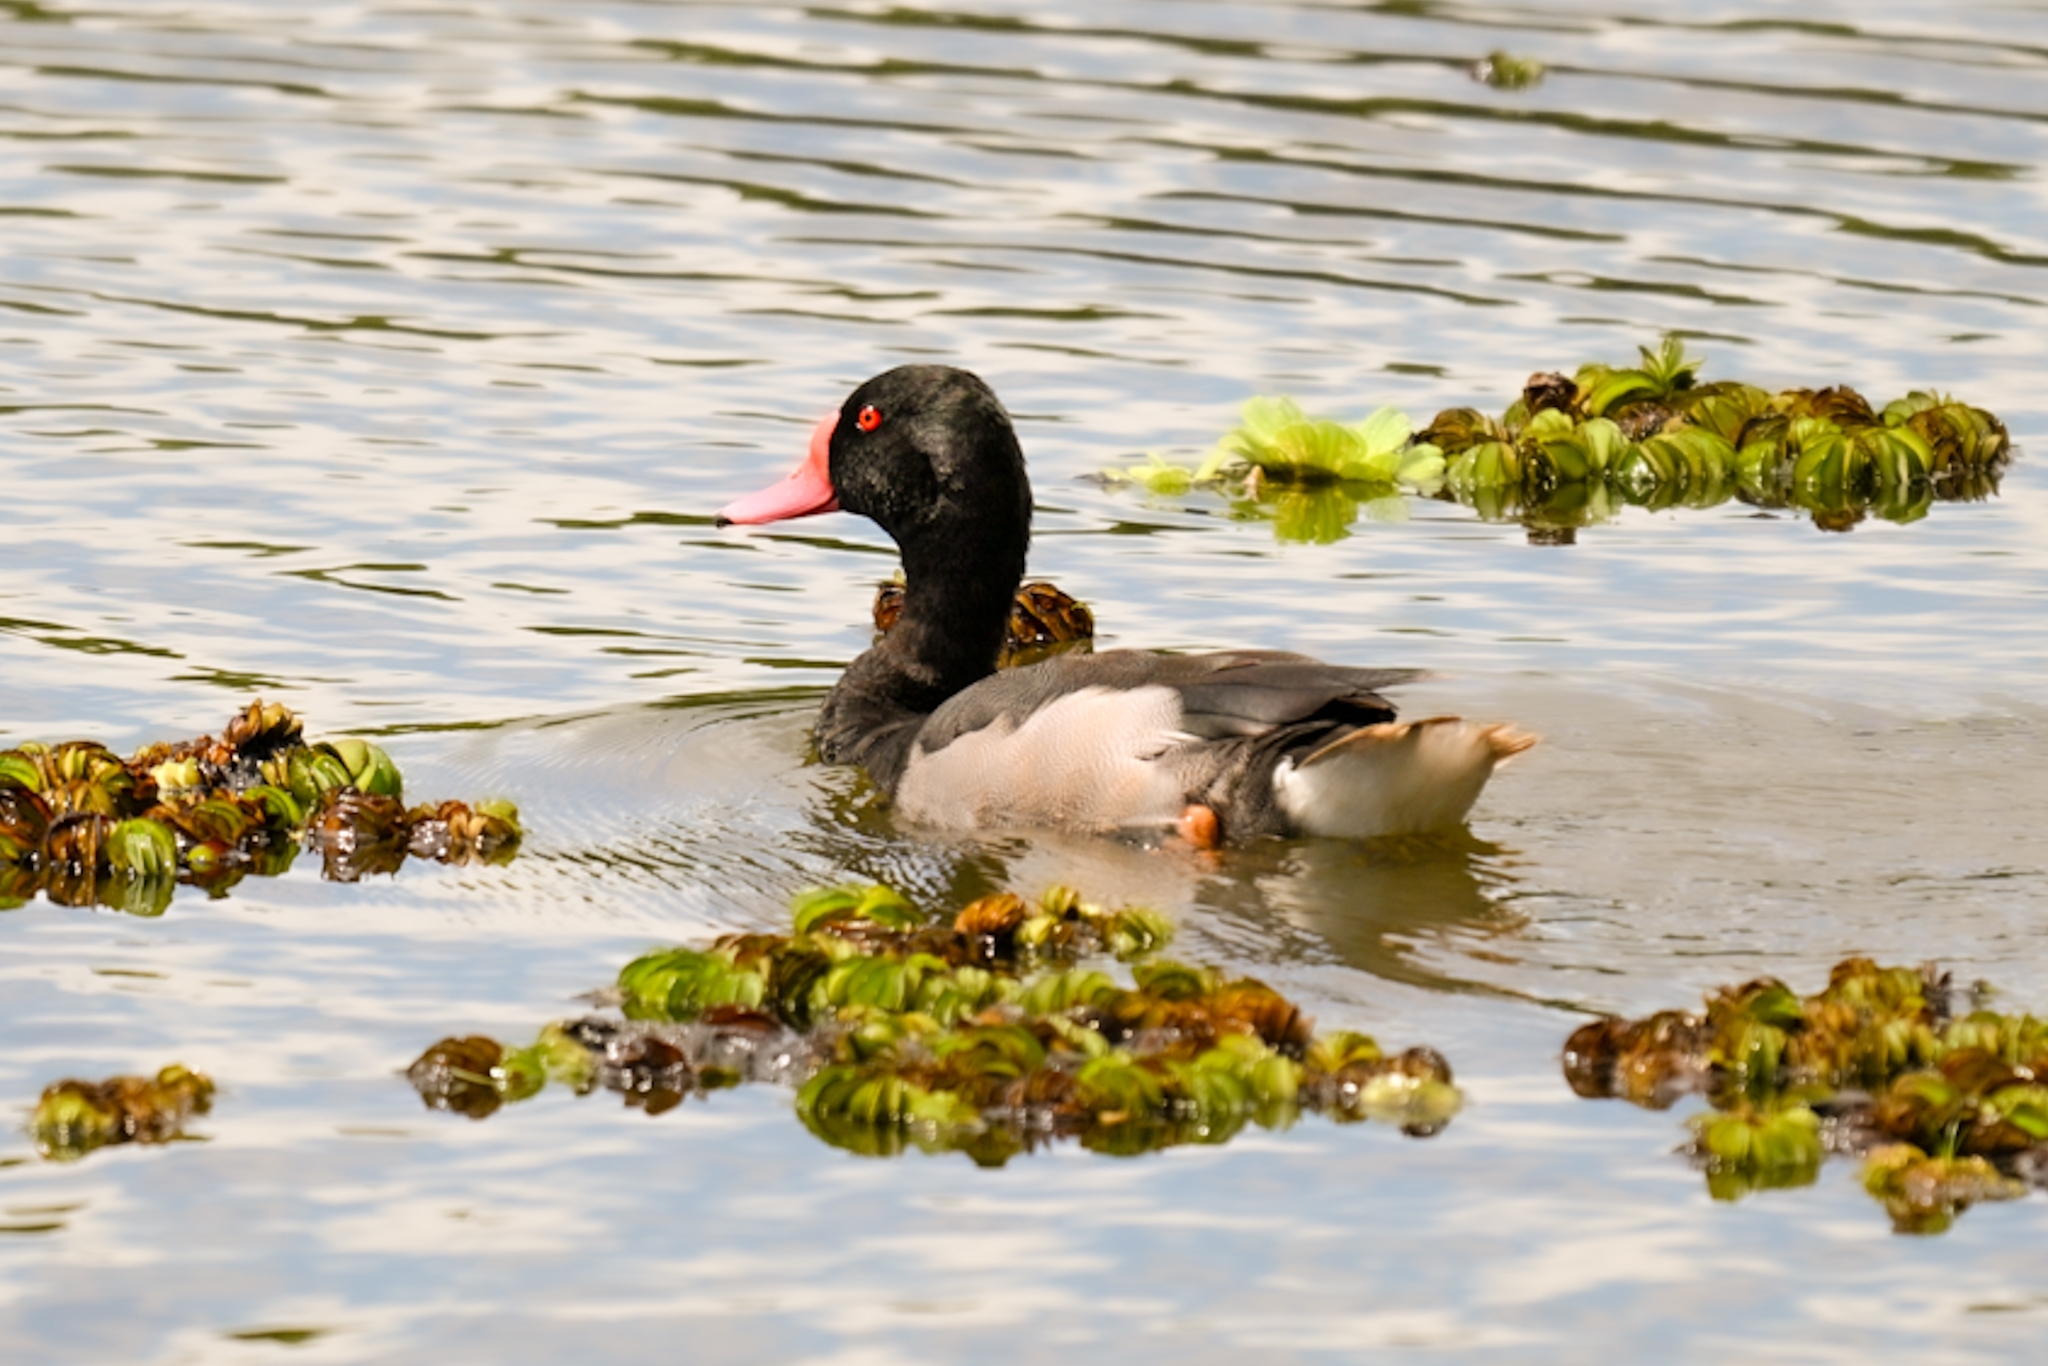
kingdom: Animalia
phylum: Chordata
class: Aves
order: Anseriformes
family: Anatidae
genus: Netta
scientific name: Netta peposaca
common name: Rosy-billed pochard
